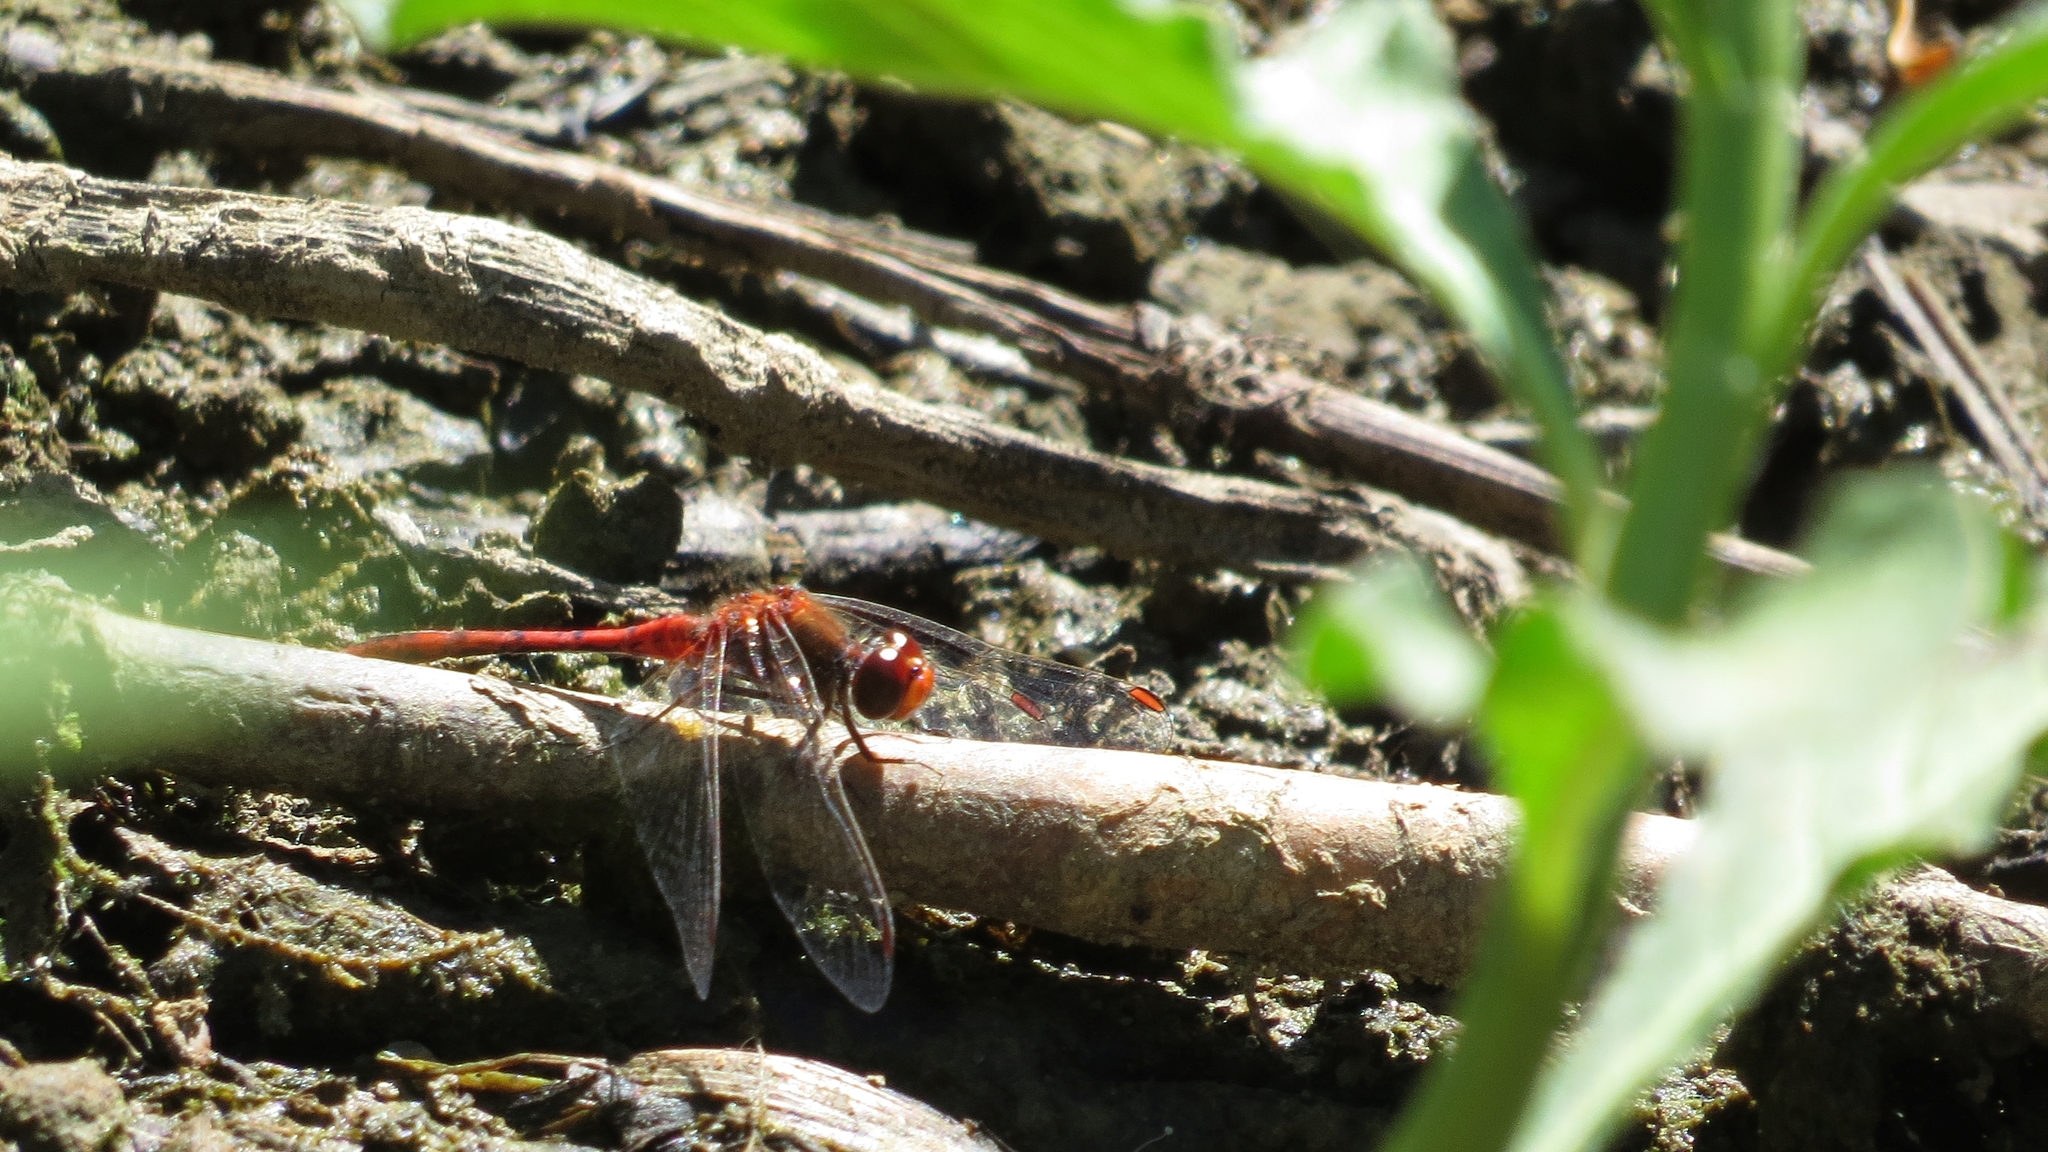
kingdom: Animalia
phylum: Arthropoda
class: Insecta
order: Odonata
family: Libellulidae
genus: Diplacodes
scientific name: Diplacodes bipunctata
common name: Red percher dragonfly
